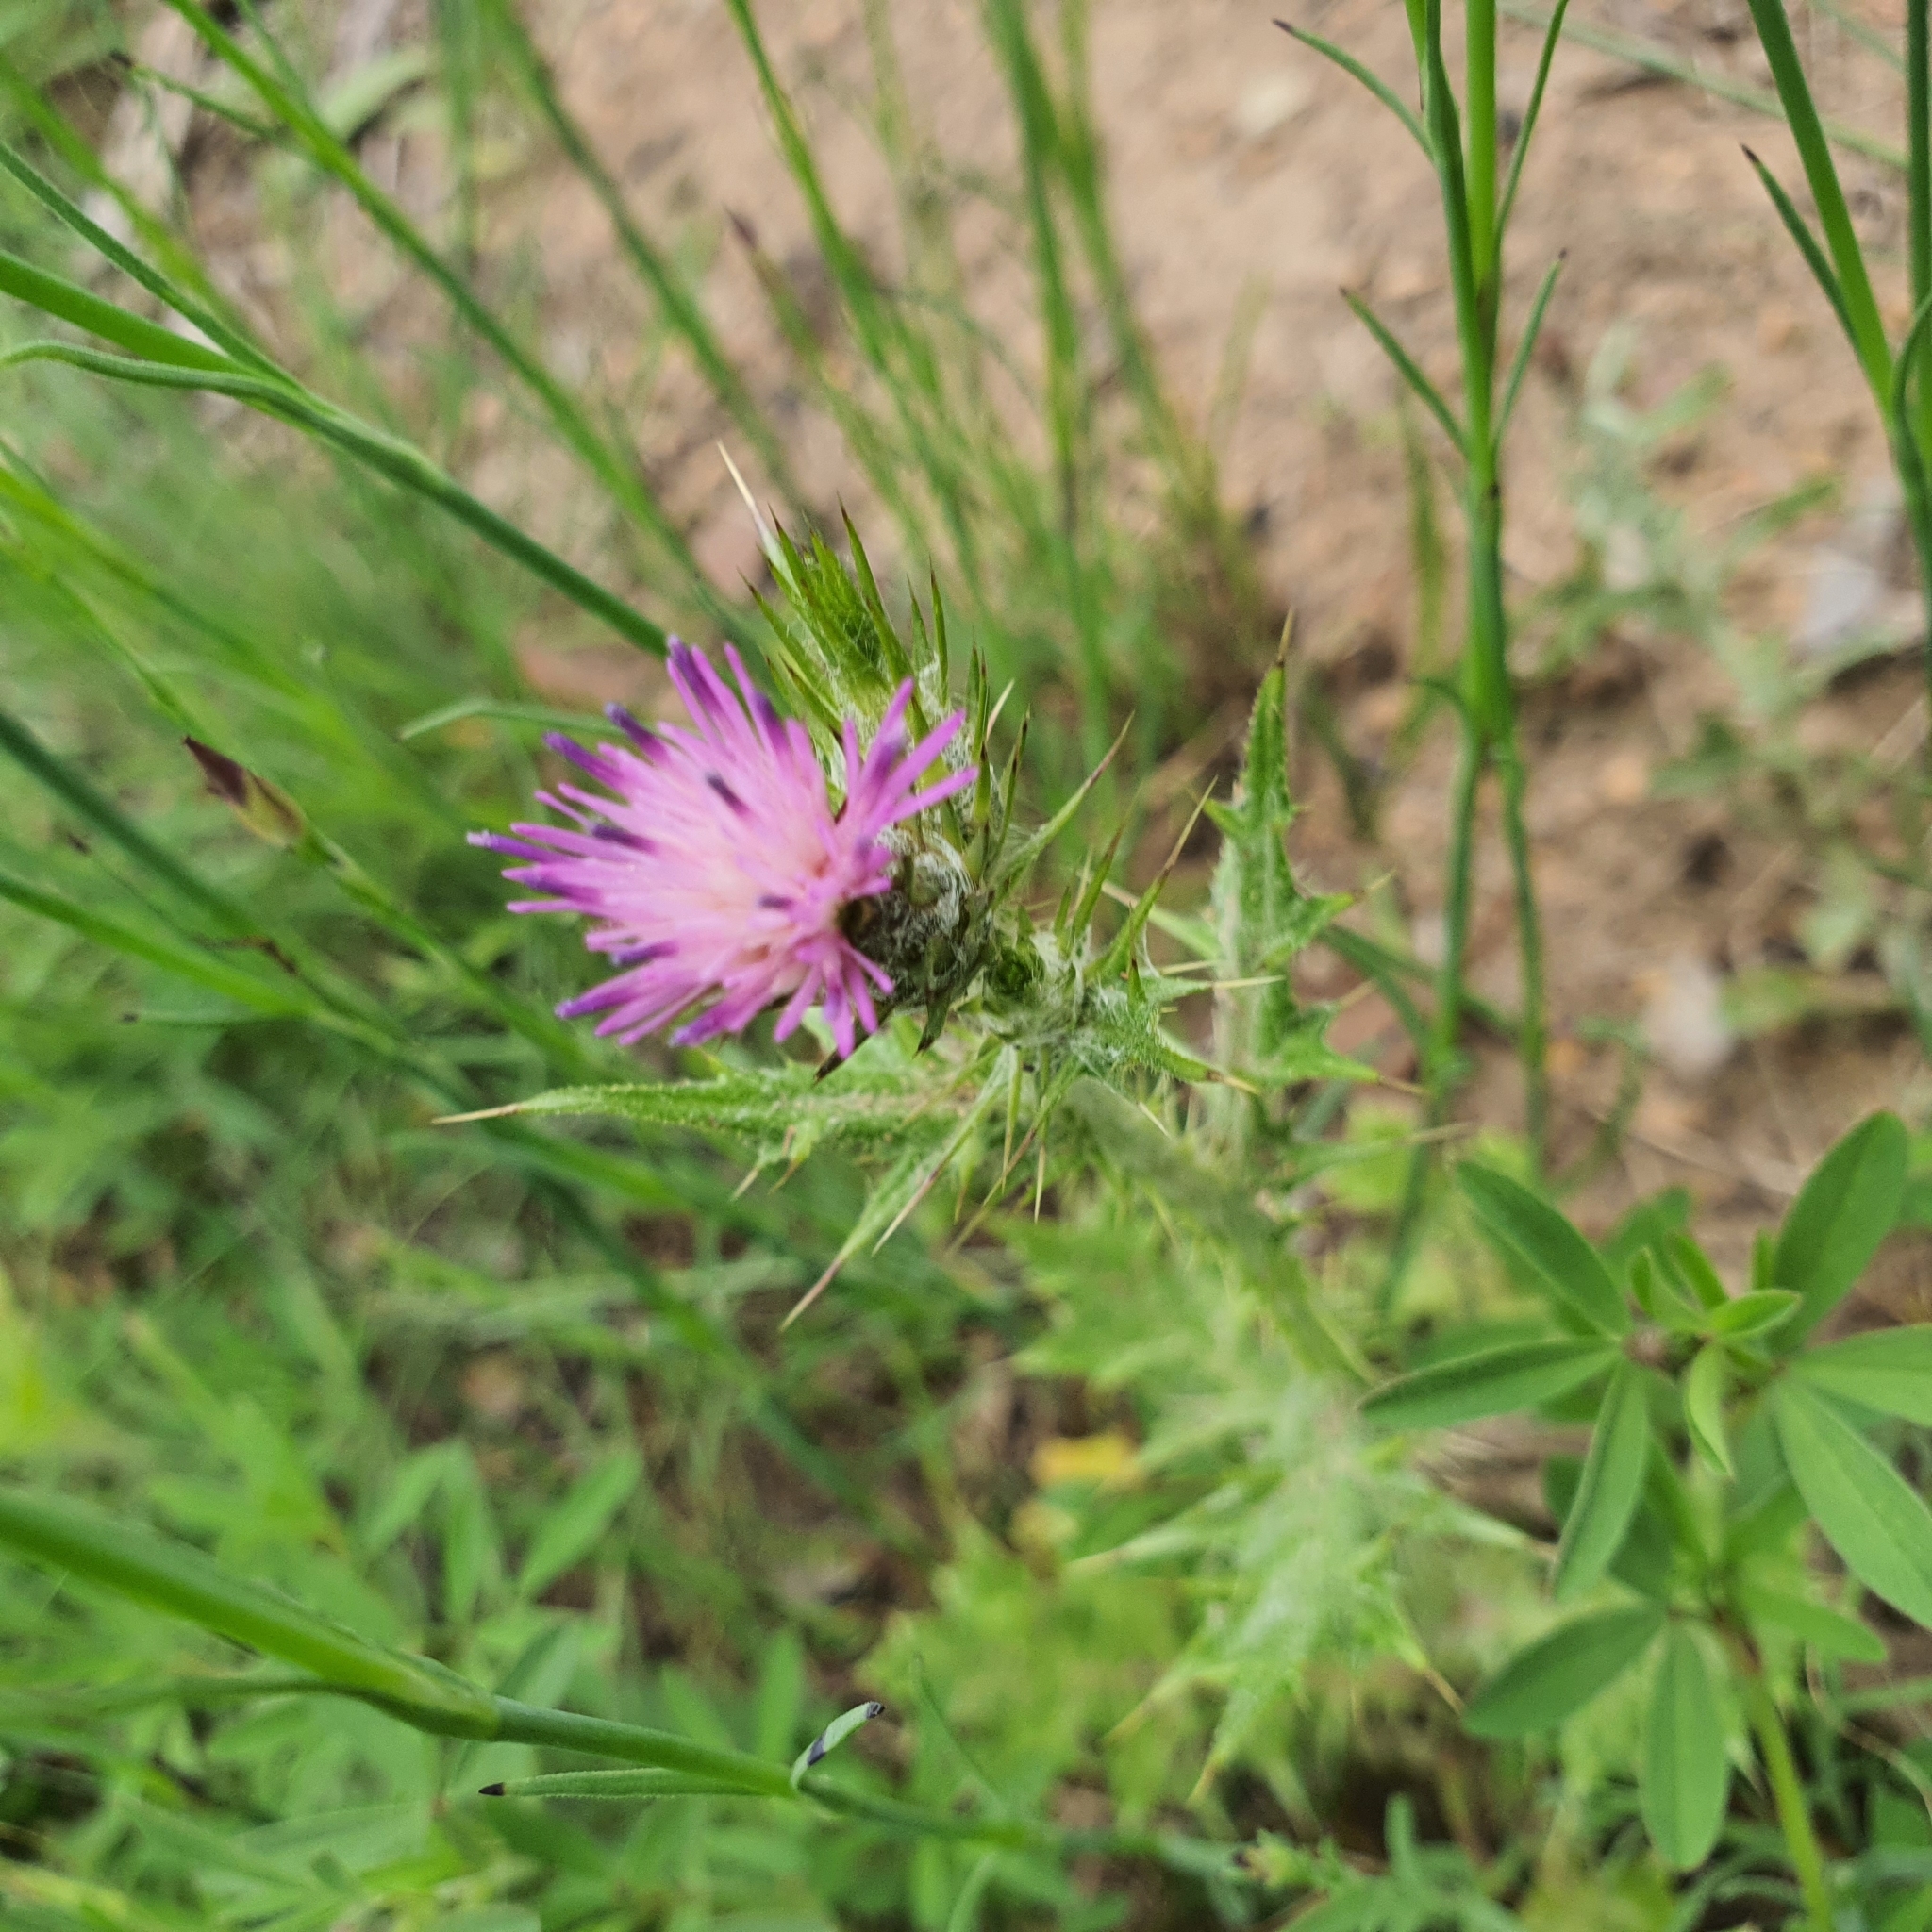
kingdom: Plantae
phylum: Tracheophyta
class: Magnoliopsida
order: Asterales
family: Asteraceae
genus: Carduus
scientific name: Carduus tenuiflorus
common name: Slender thistle
